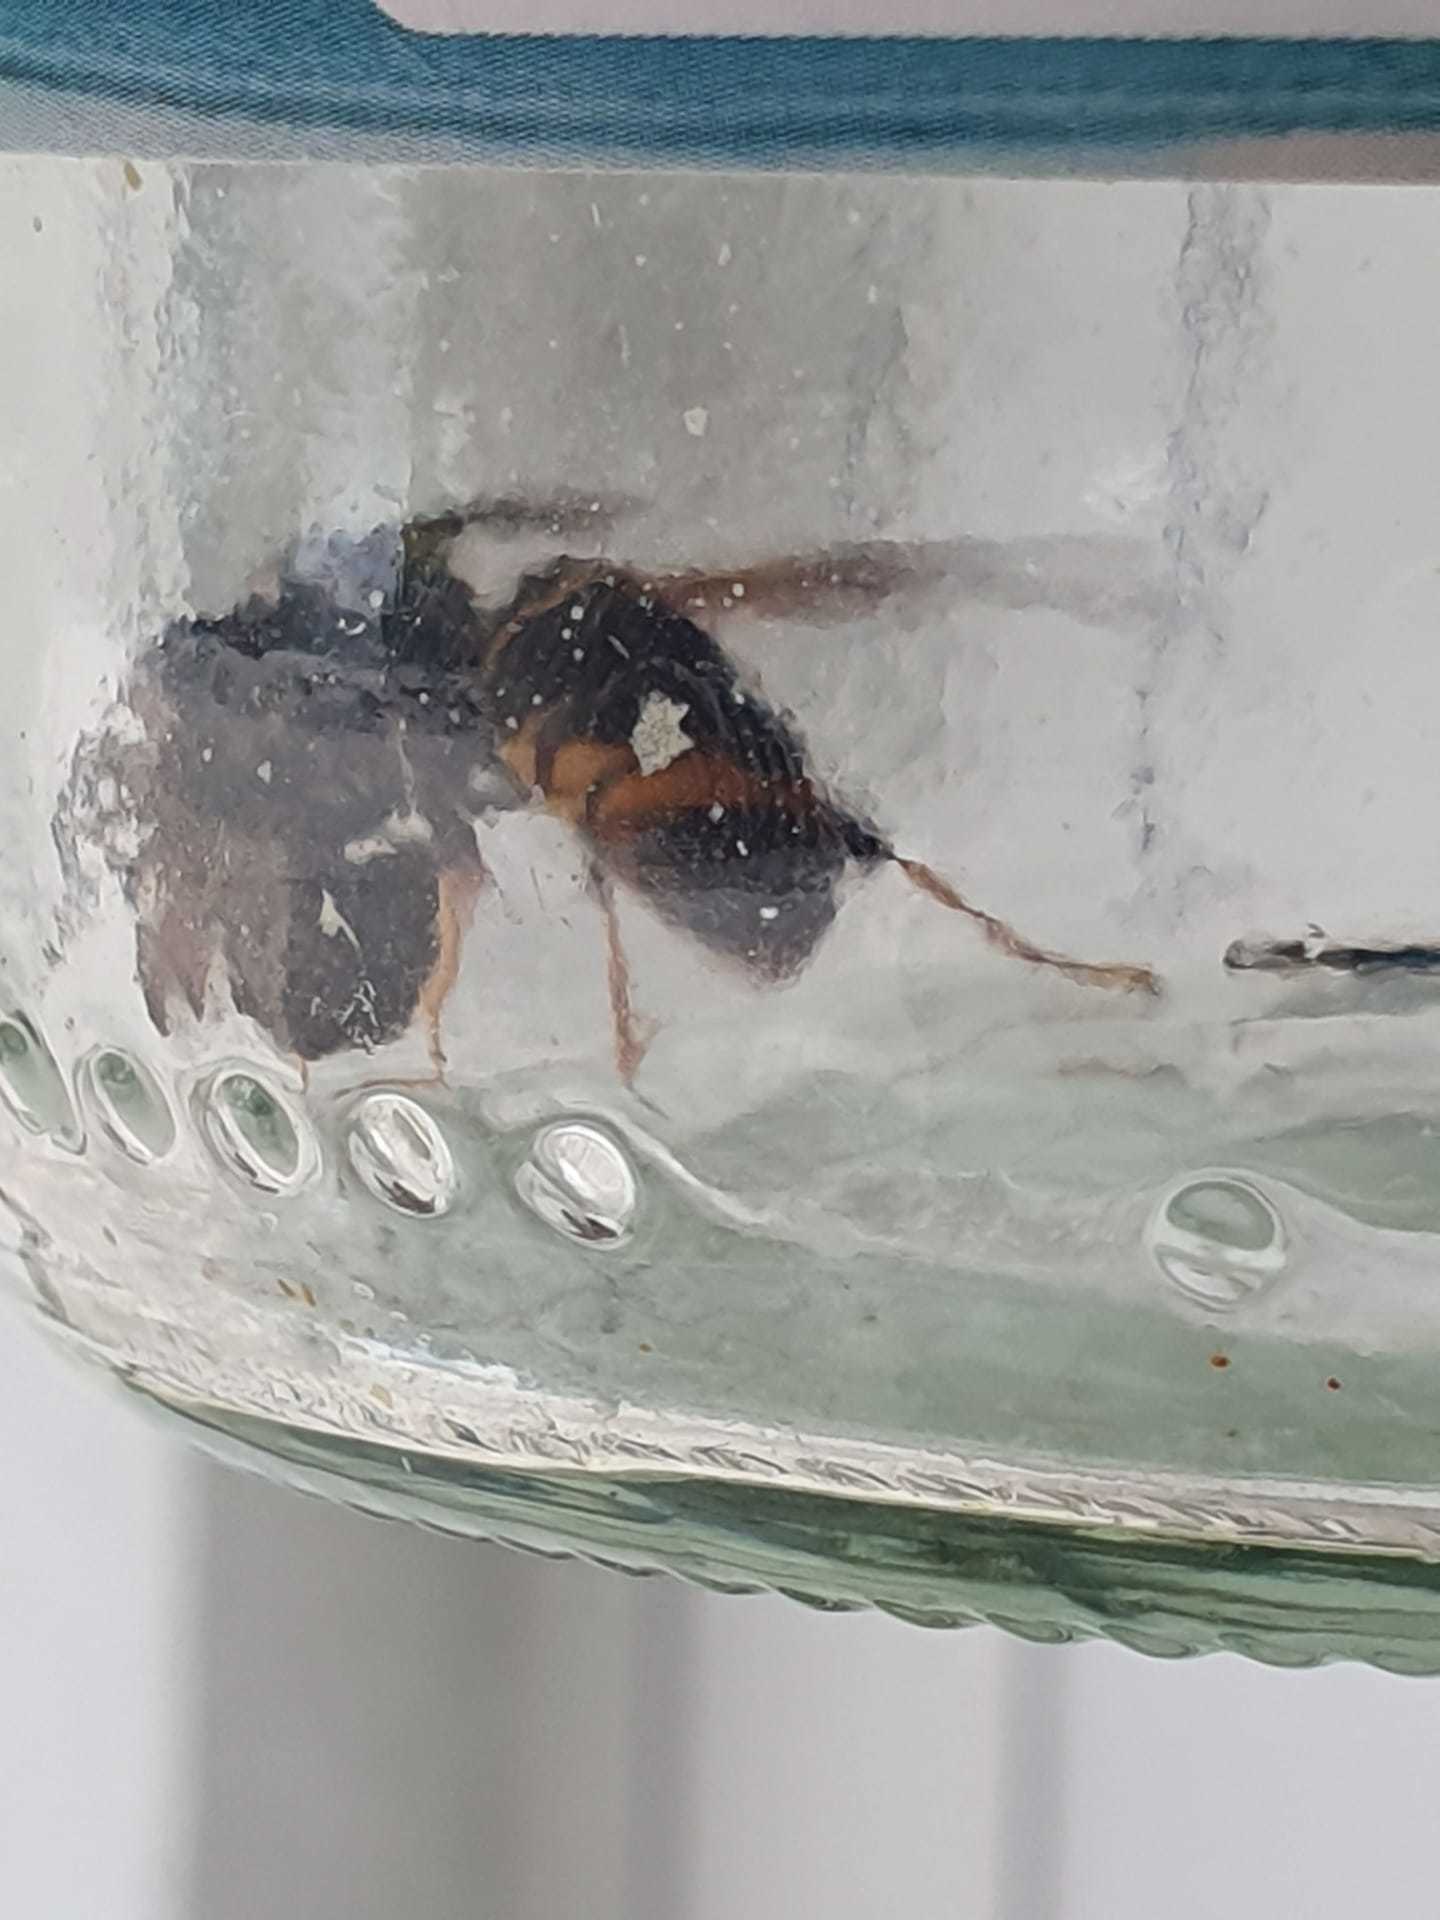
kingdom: Animalia
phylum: Arthropoda
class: Insecta
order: Hymenoptera
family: Vespidae
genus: Vespa
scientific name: Vespa velutina
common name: Asian hornet
